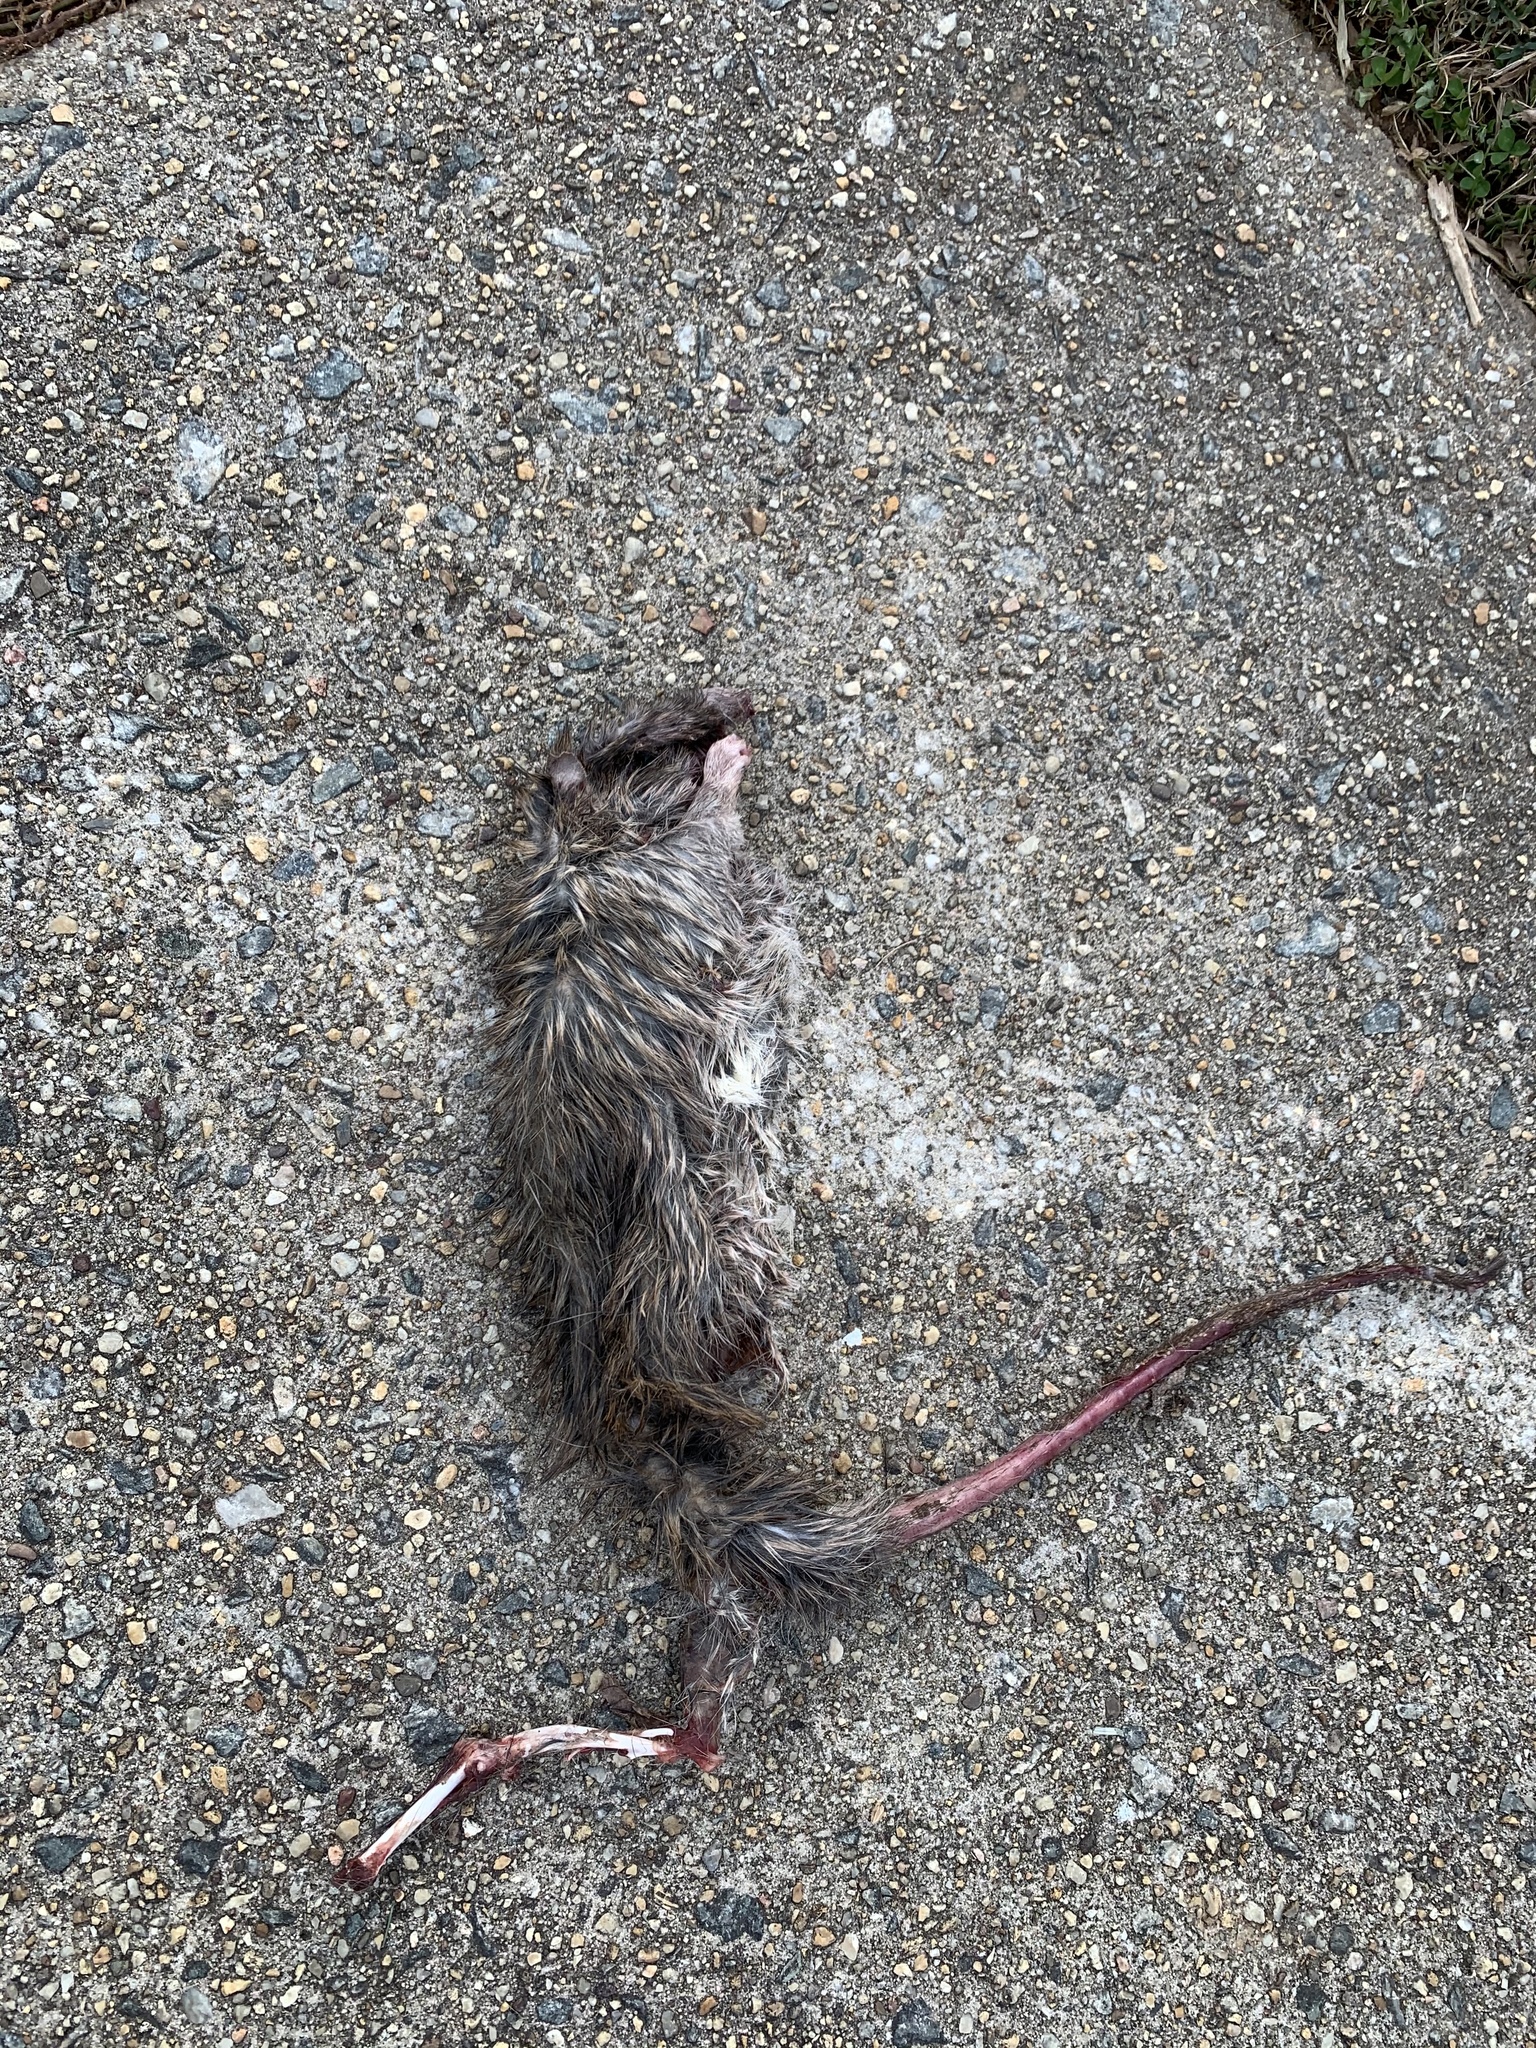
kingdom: Animalia
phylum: Chordata
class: Mammalia
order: Rodentia
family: Muridae
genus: Rattus
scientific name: Rattus norvegicus
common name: Brown rat
